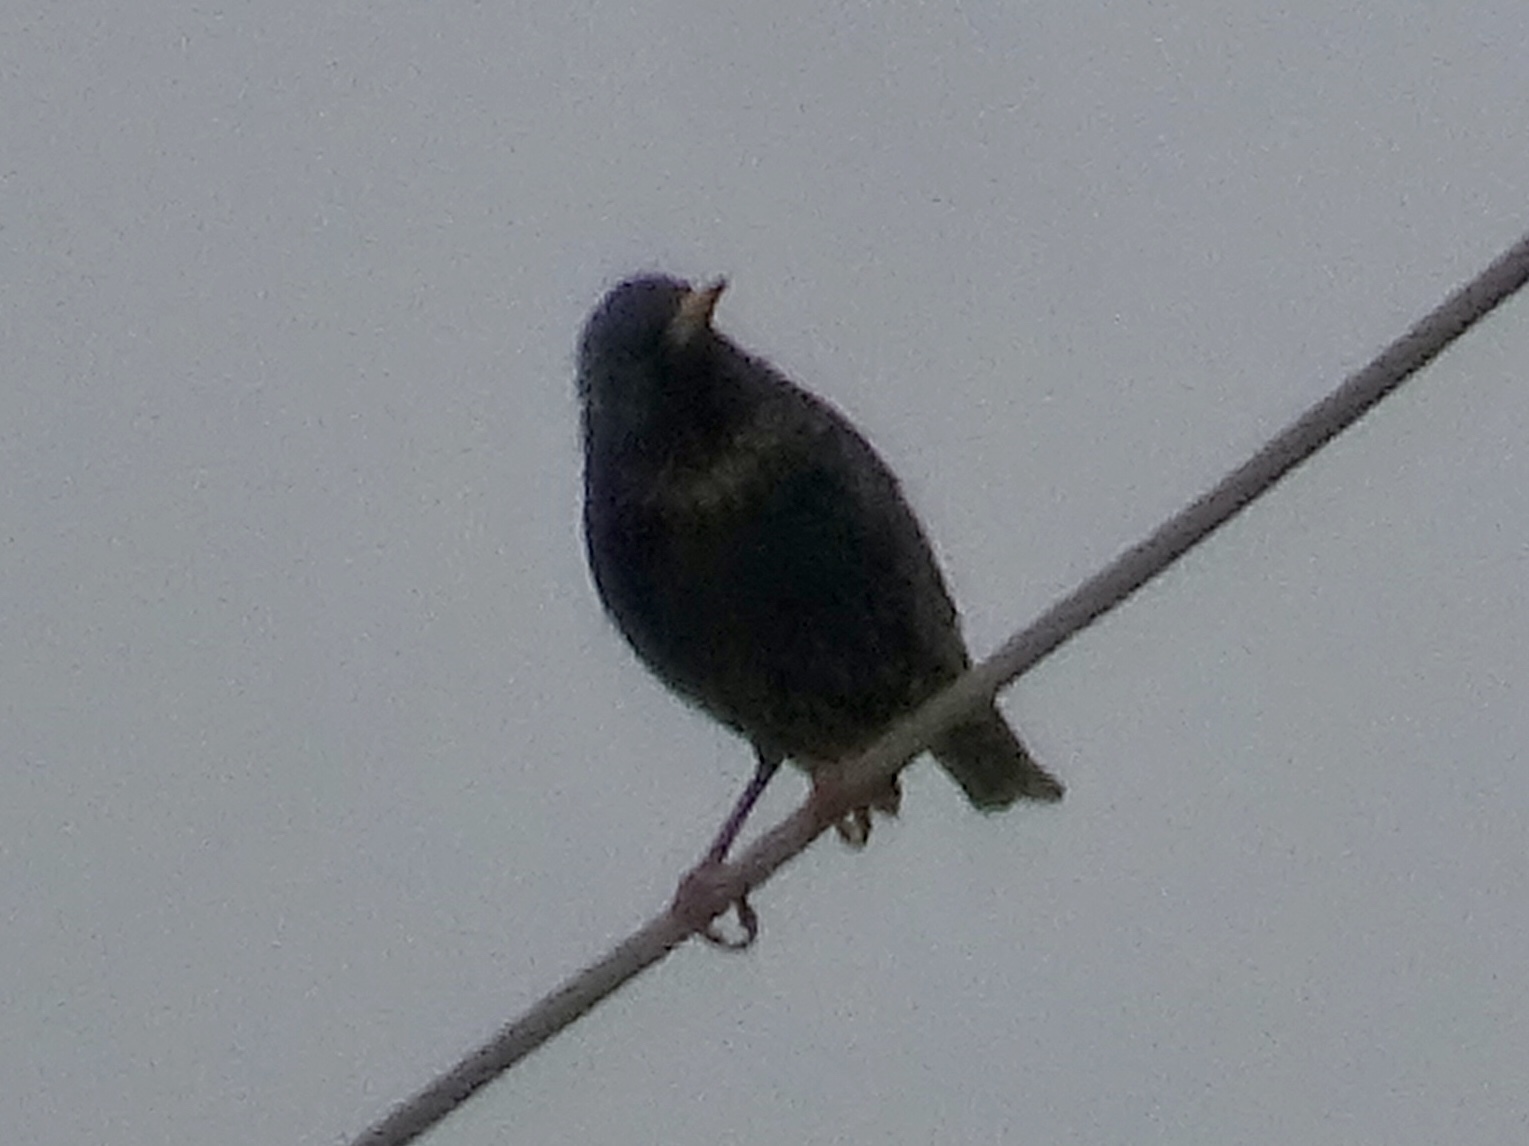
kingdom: Animalia
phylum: Chordata
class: Aves
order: Passeriformes
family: Sturnidae
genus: Sturnus
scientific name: Sturnus vulgaris
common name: Common starling
